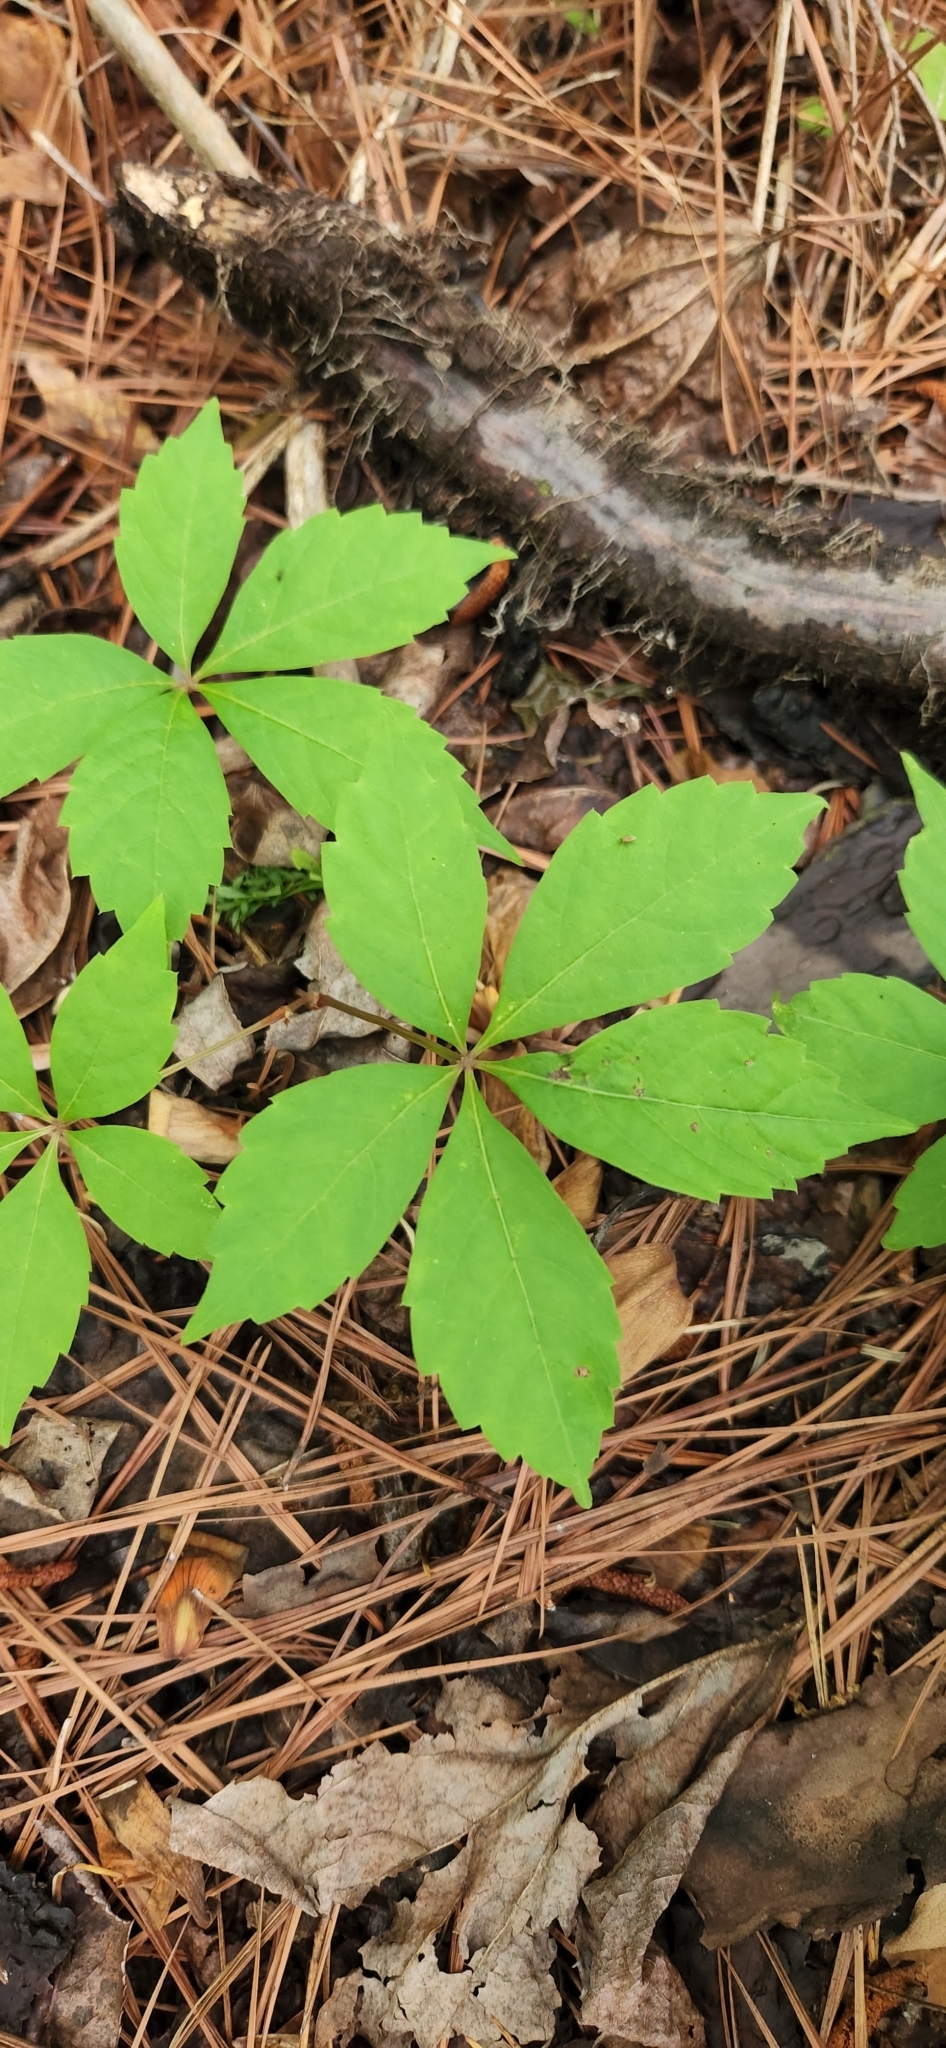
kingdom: Plantae
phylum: Tracheophyta
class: Magnoliopsida
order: Vitales
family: Vitaceae
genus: Parthenocissus
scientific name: Parthenocissus quinquefolia
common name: Virginia-creeper
